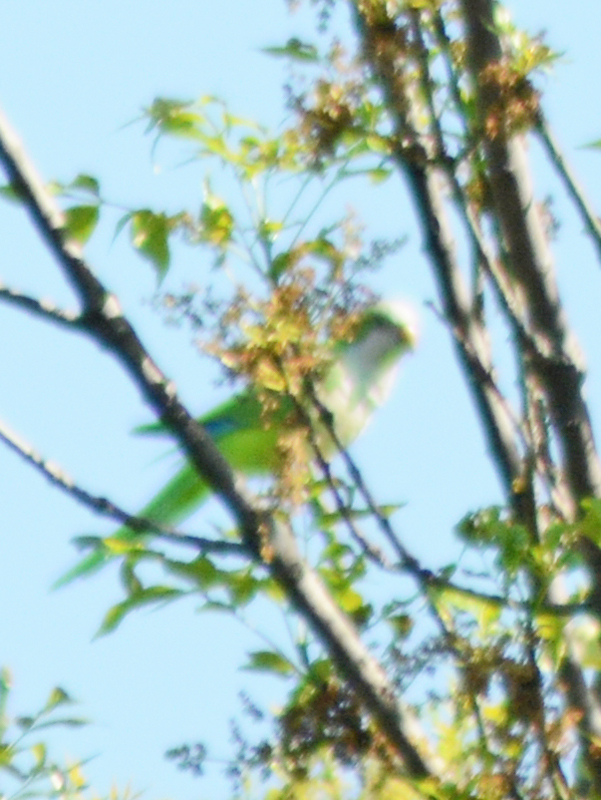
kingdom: Animalia
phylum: Chordata
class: Aves
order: Psittaciformes
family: Psittacidae
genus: Myiopsitta
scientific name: Myiopsitta monachus
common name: Monk parakeet
